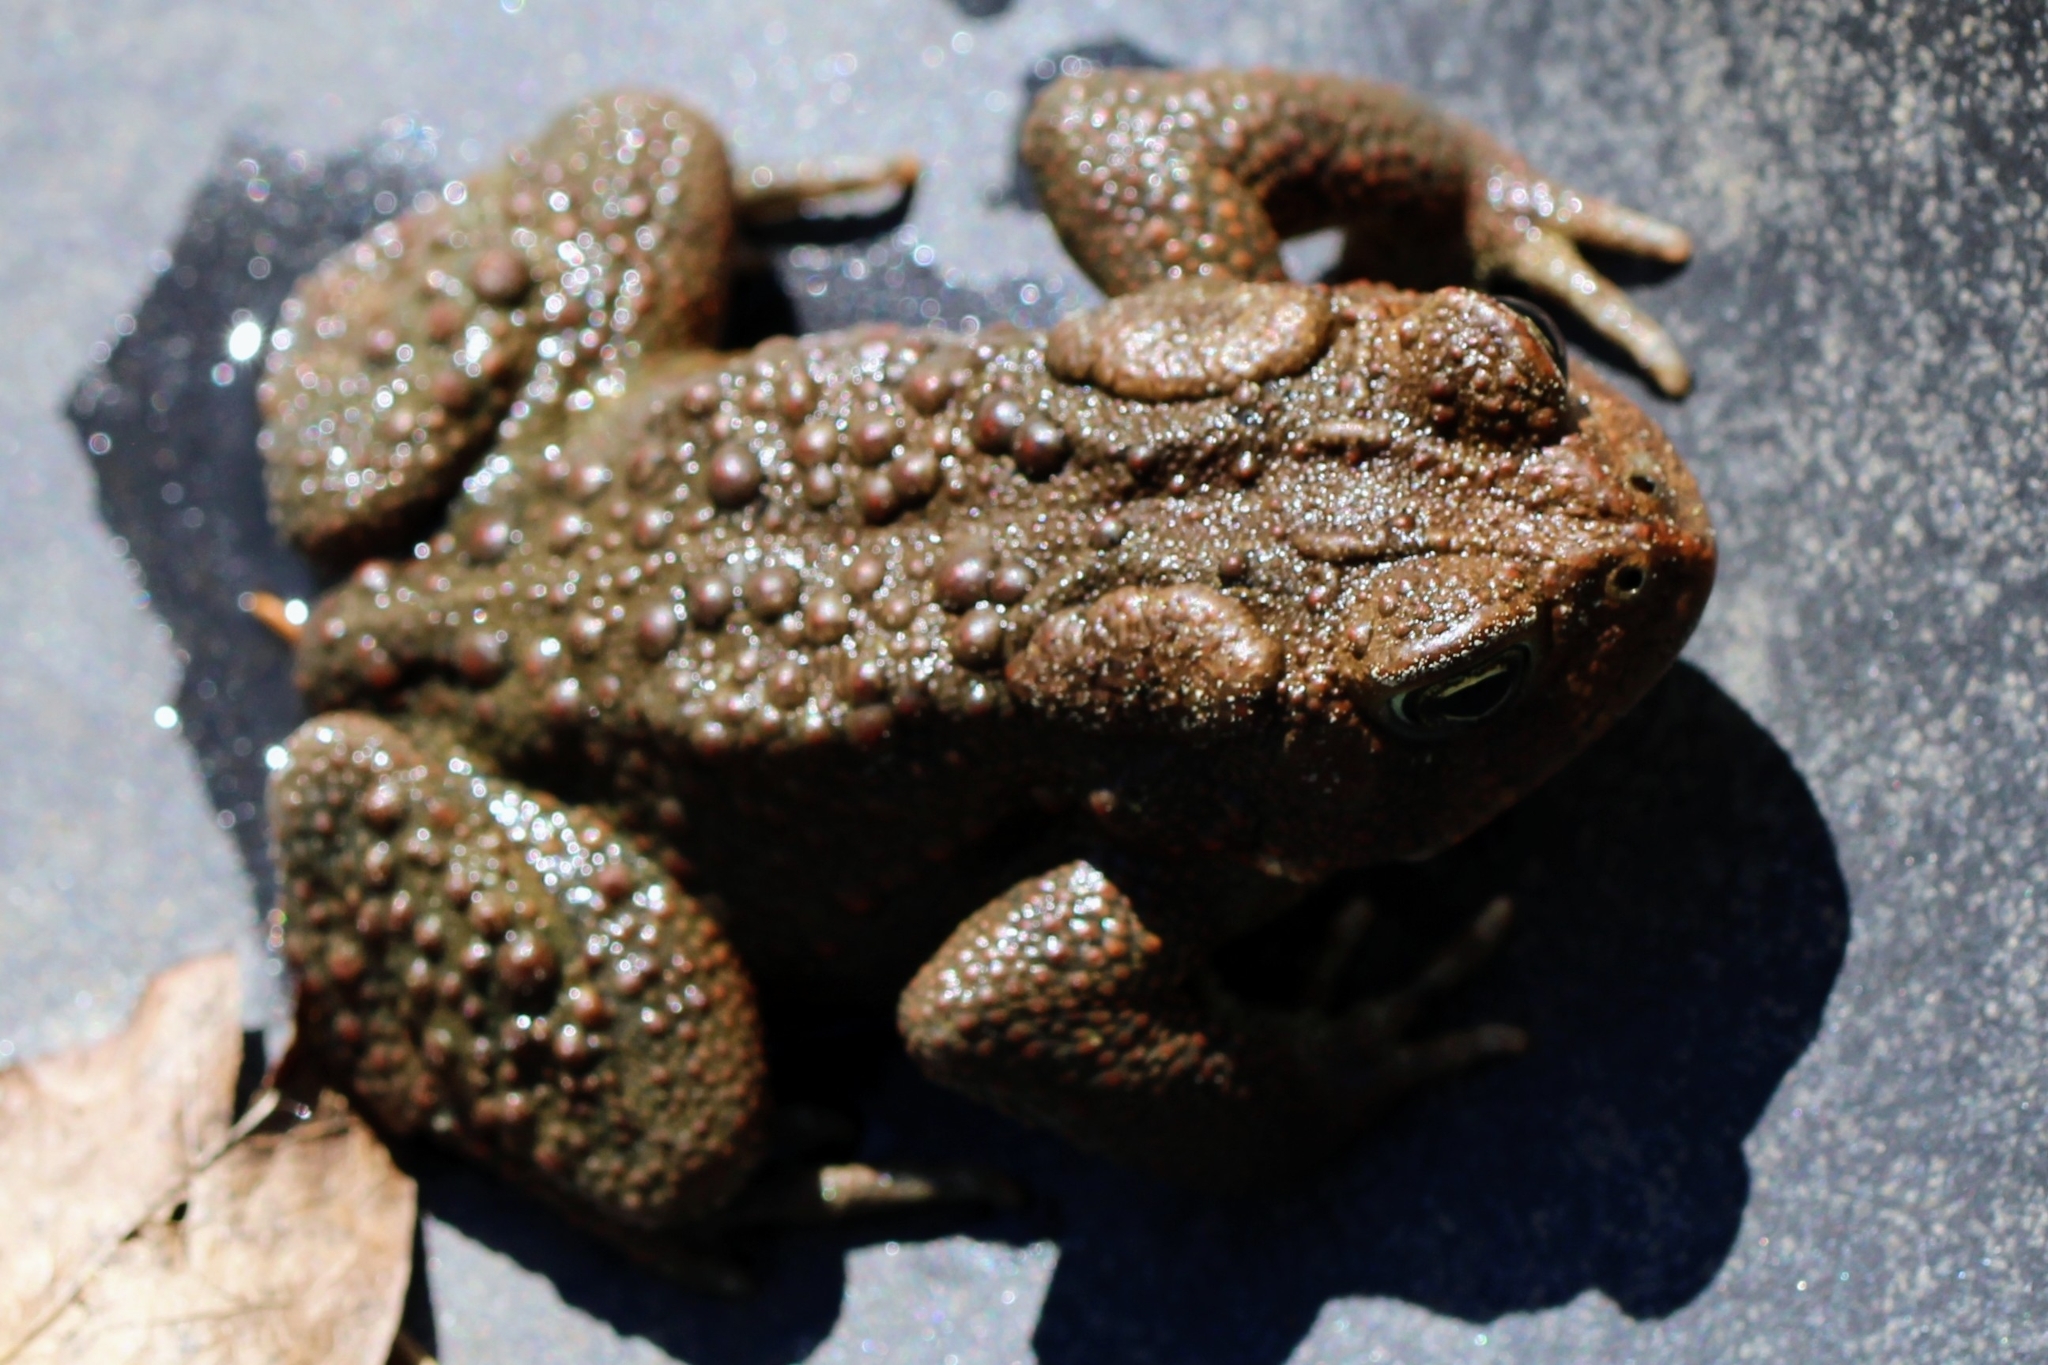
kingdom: Animalia
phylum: Chordata
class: Amphibia
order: Anura
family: Bufonidae
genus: Anaxyrus
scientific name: Anaxyrus americanus
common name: American toad
